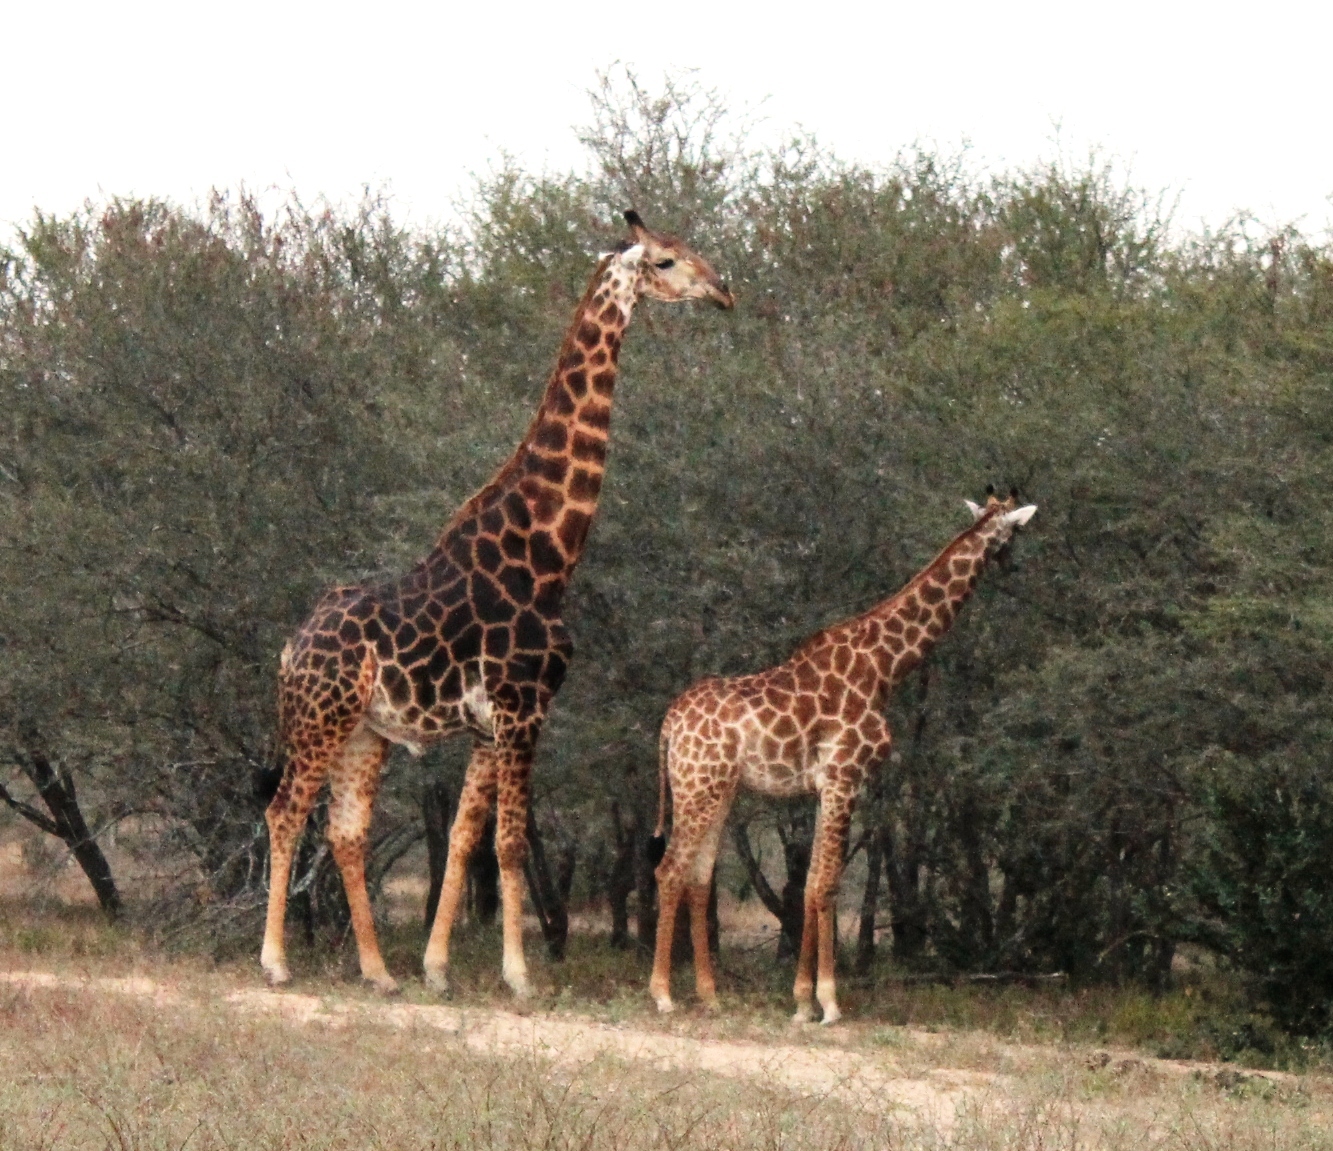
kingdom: Animalia
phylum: Chordata
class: Mammalia
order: Artiodactyla
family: Giraffidae
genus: Giraffa
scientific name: Giraffa giraffa
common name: Southern giraffe
